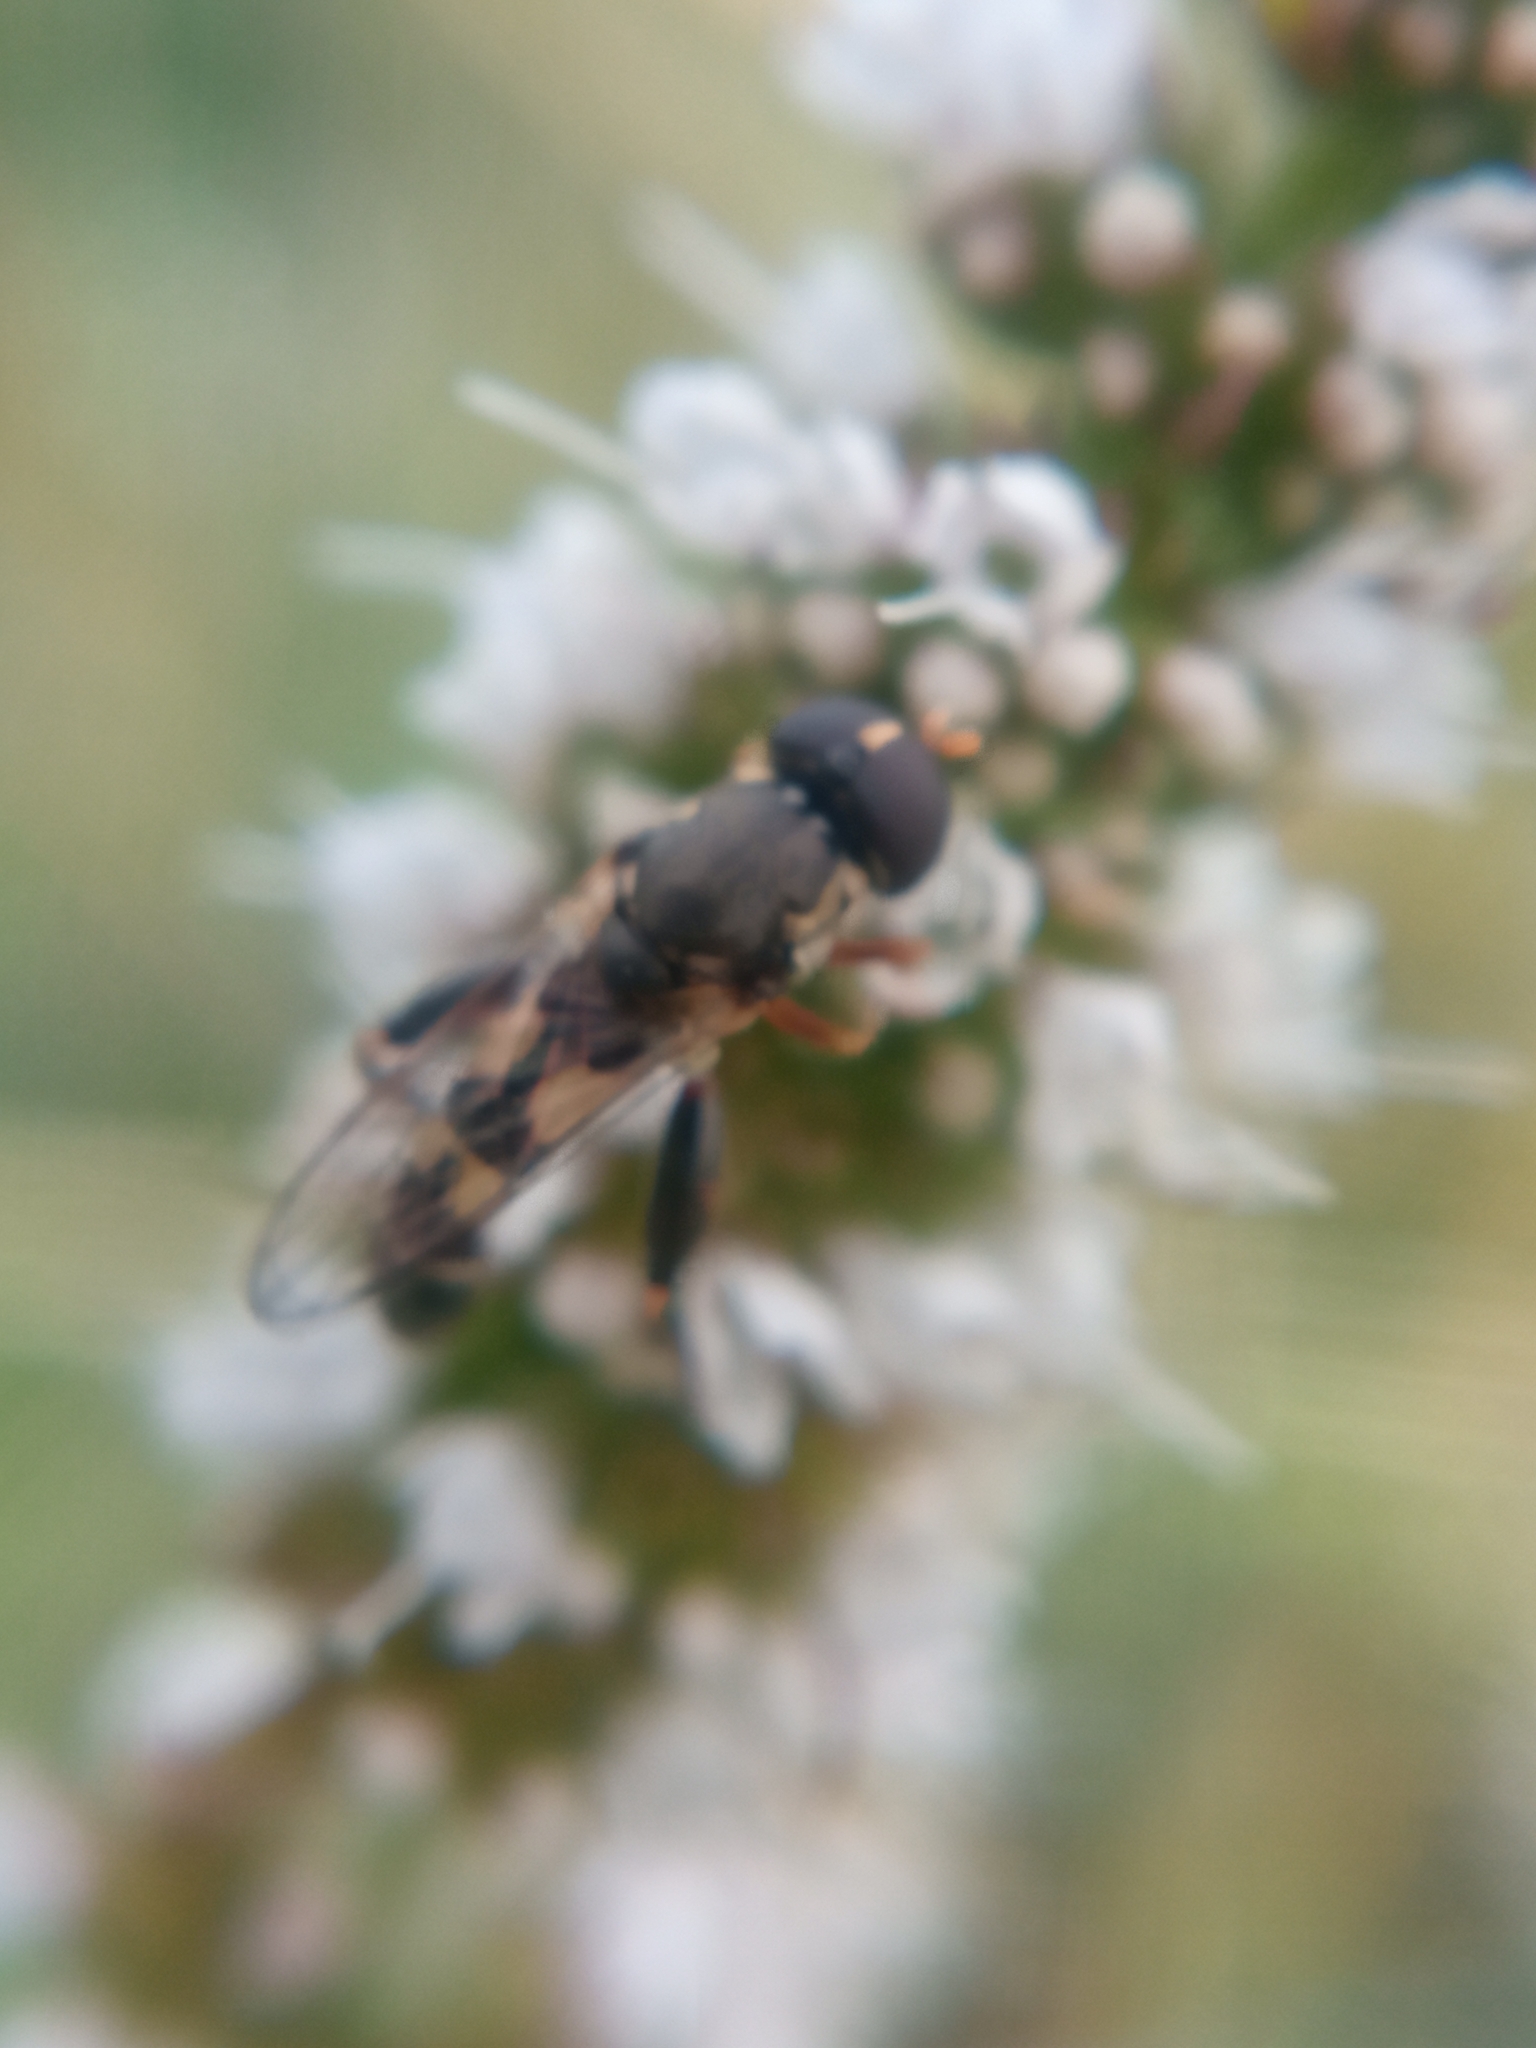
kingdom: Animalia
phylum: Arthropoda
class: Insecta
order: Diptera
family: Syrphidae
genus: Syritta
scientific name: Syritta pipiens
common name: Hover fly
